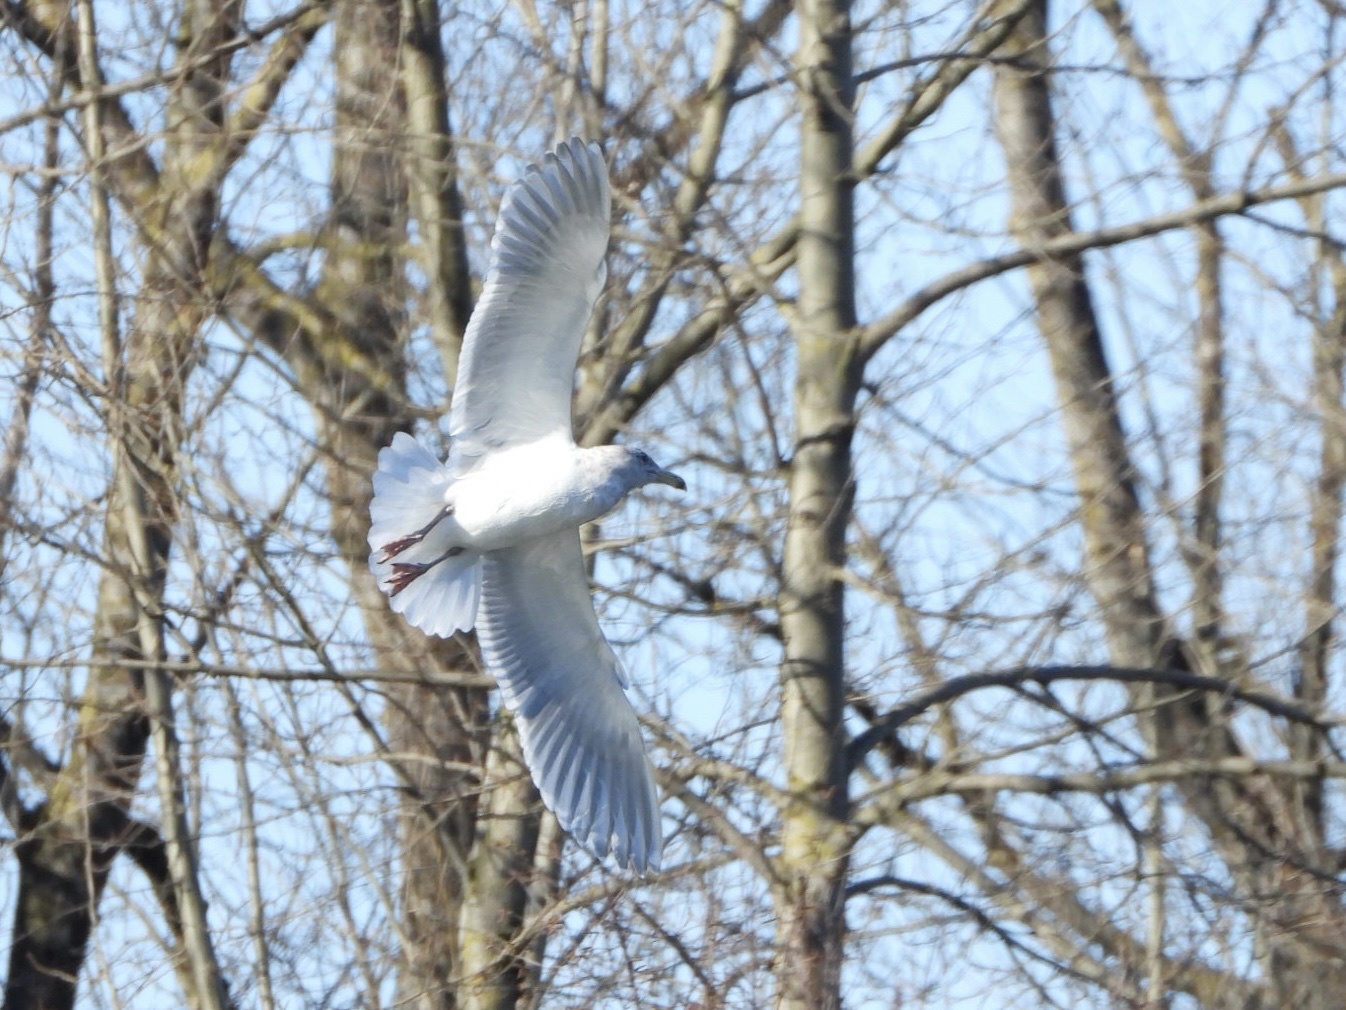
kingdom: Animalia
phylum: Chordata
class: Aves
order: Charadriiformes
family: Laridae
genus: Larus
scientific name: Larus
